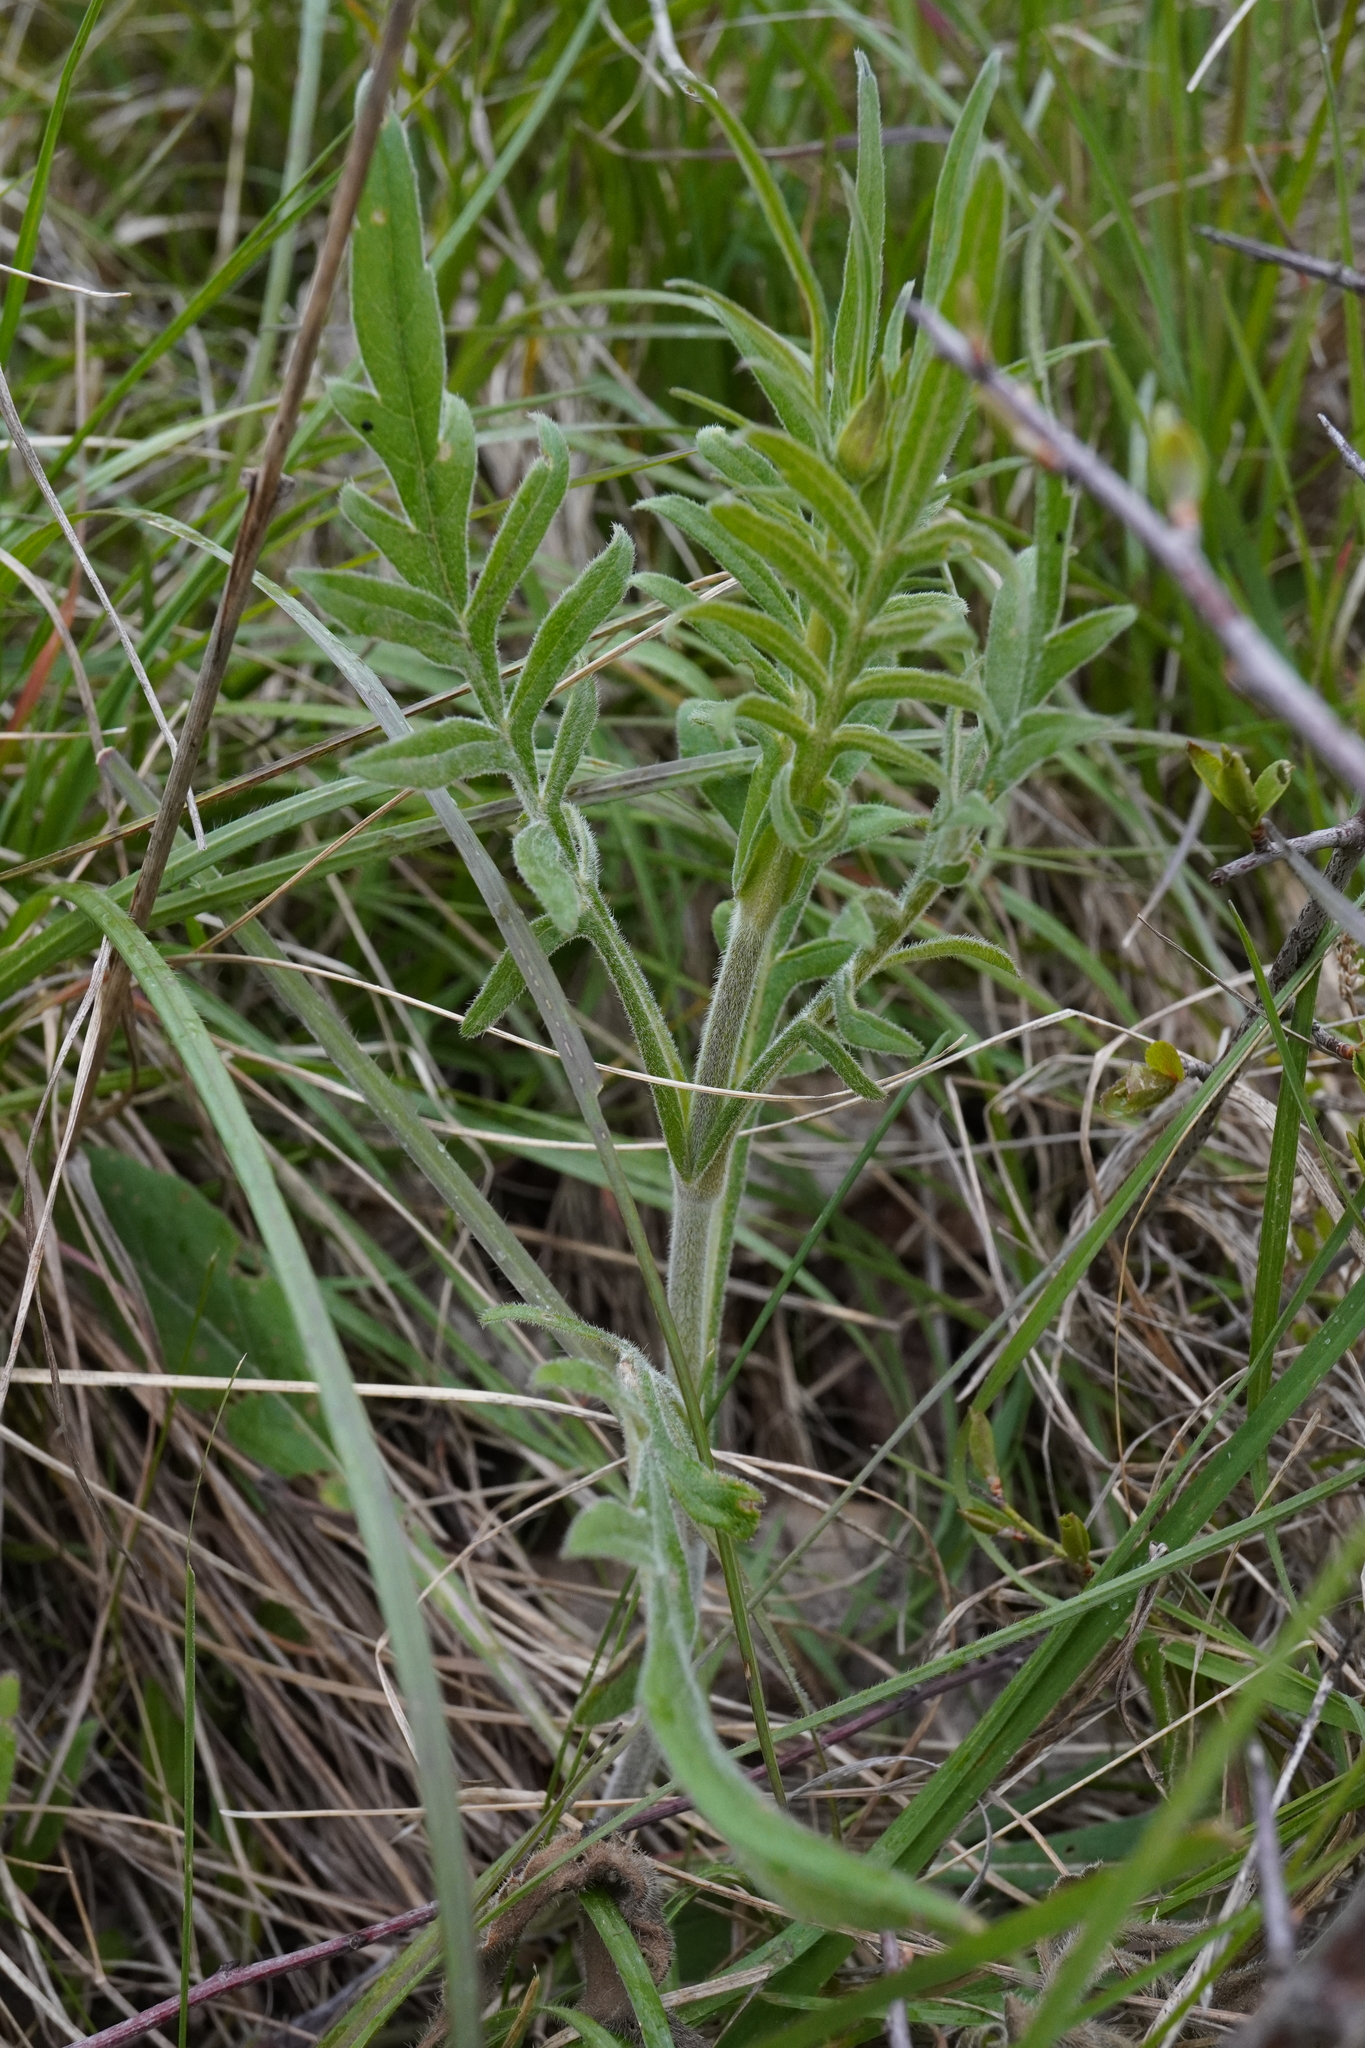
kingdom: Plantae
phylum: Tracheophyta
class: Magnoliopsida
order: Dipsacales
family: Caprifoliaceae
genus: Knautia
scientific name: Knautia arvensis
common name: Field scabiosa
